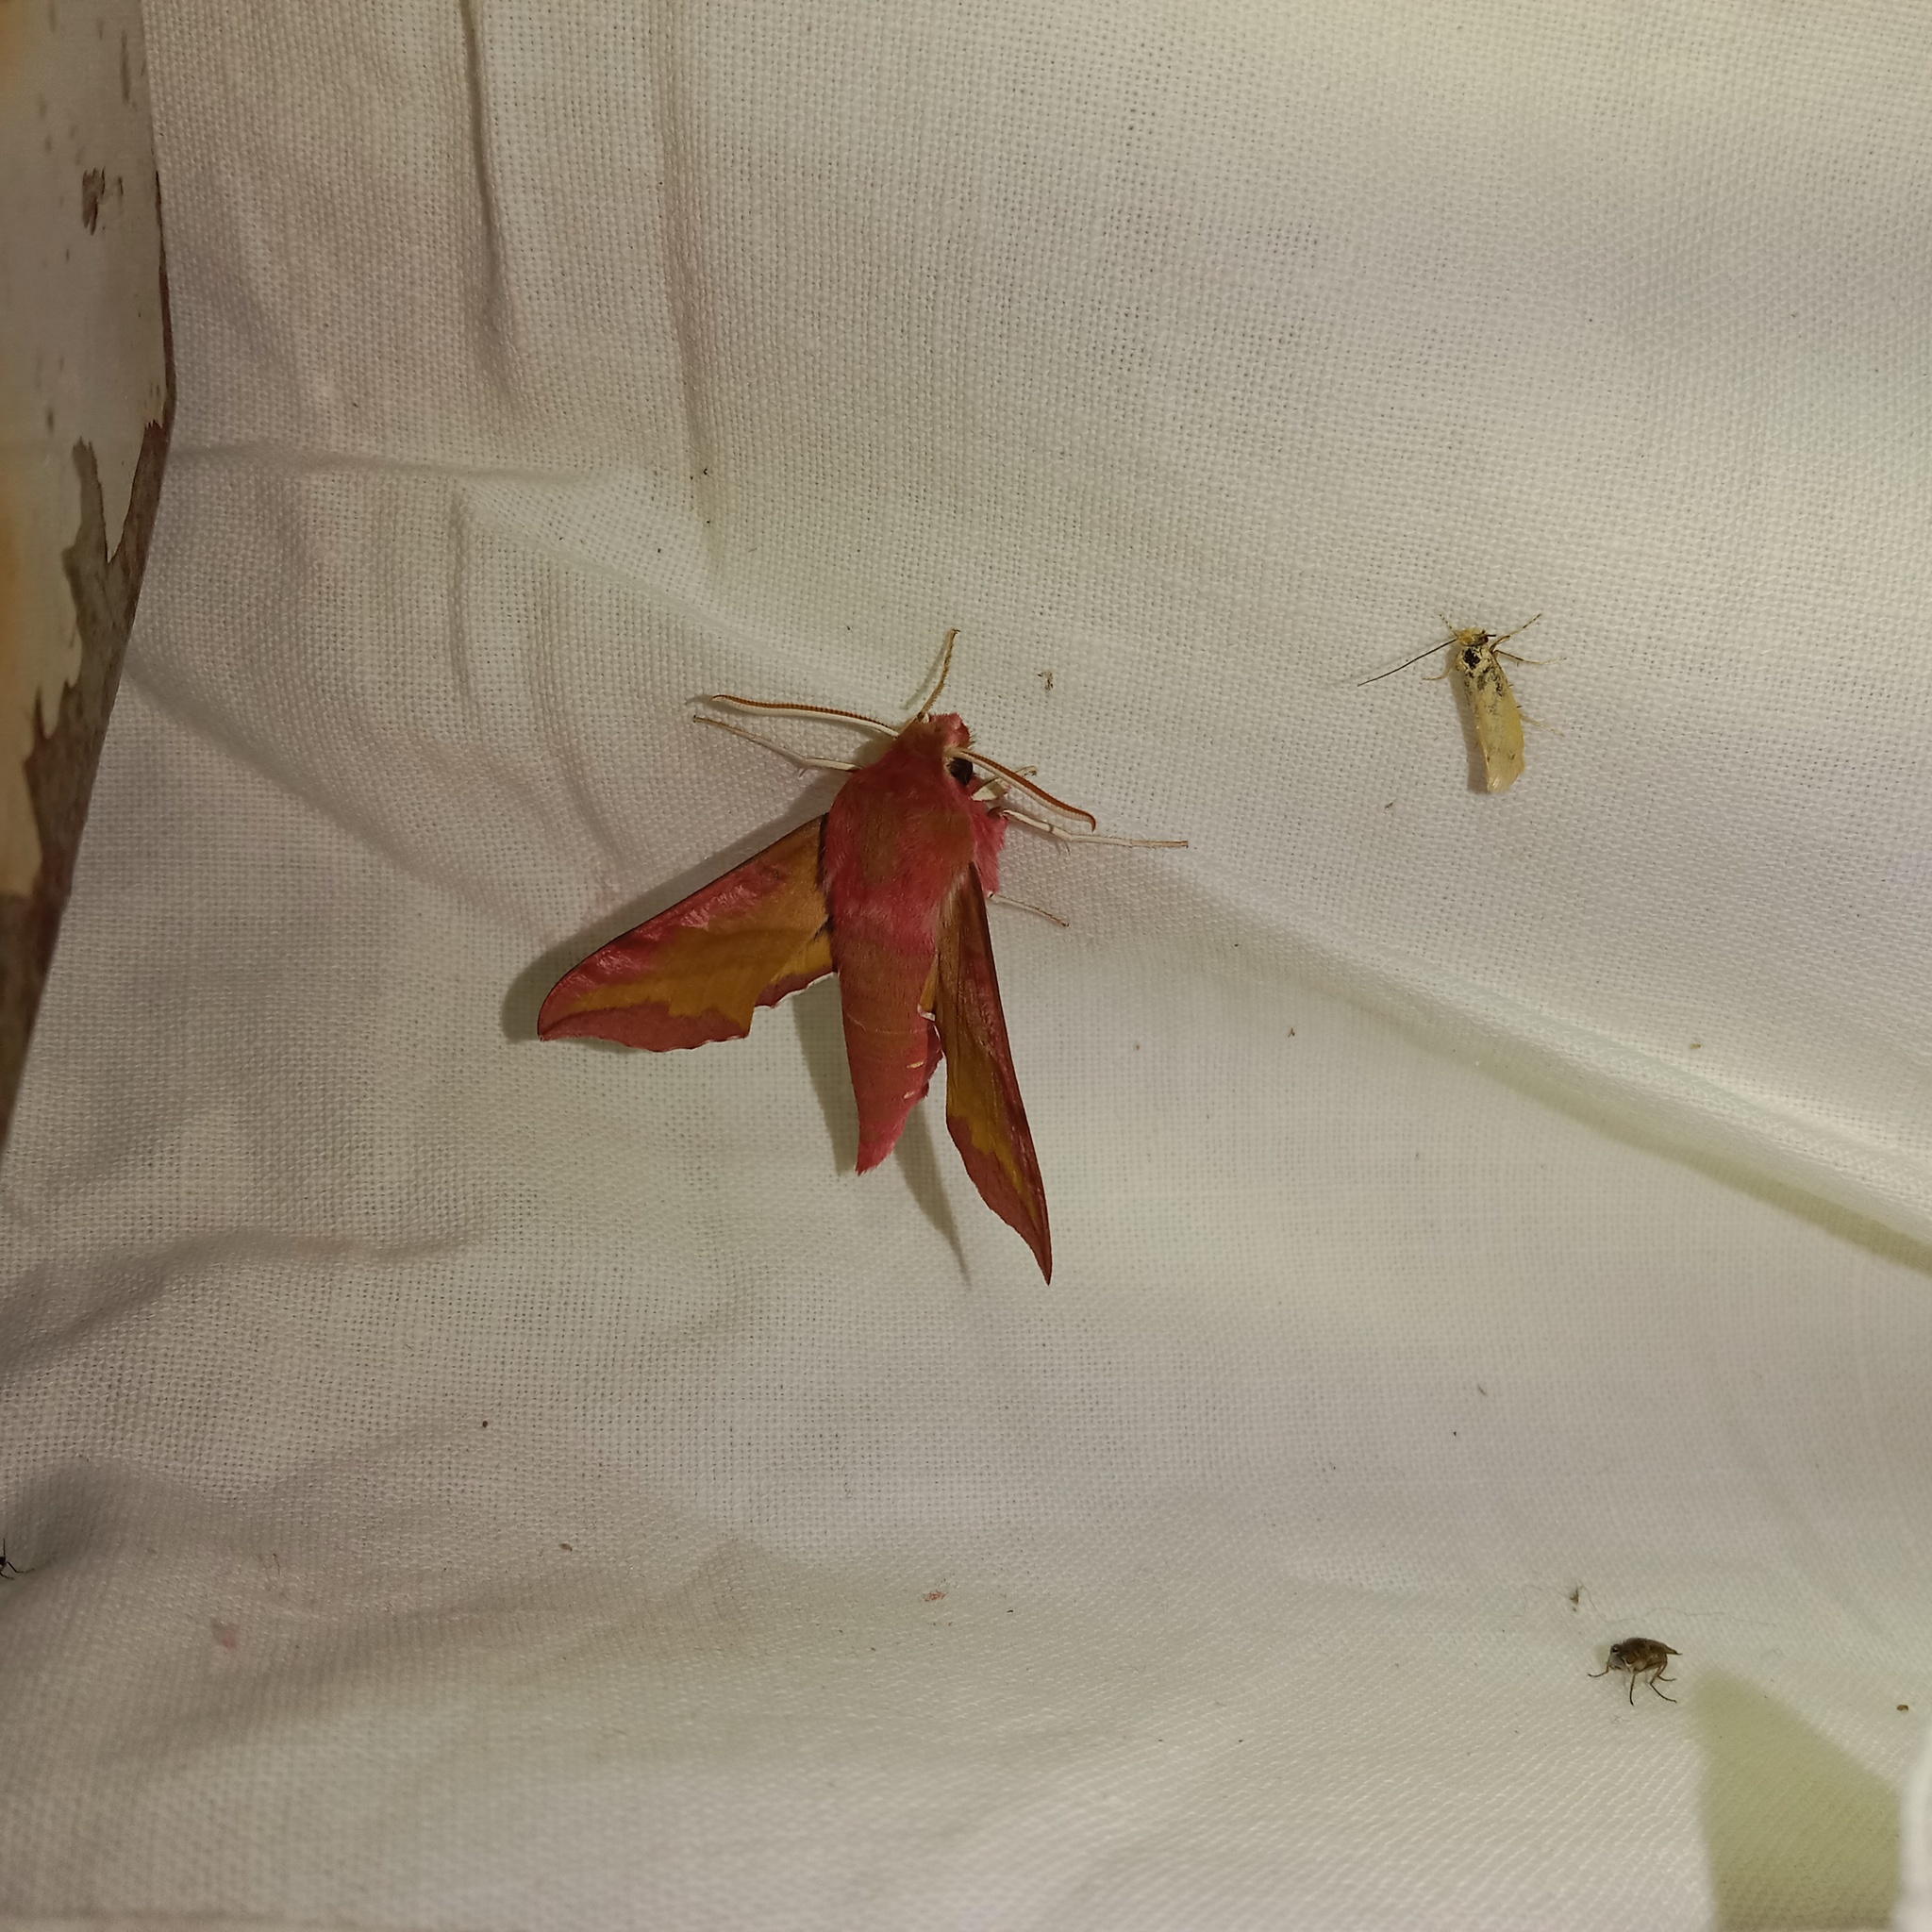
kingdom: Animalia
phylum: Arthropoda
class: Insecta
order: Lepidoptera
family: Sphingidae
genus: Deilephila
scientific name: Deilephila porcellus
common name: Small elephant hawk-moth
